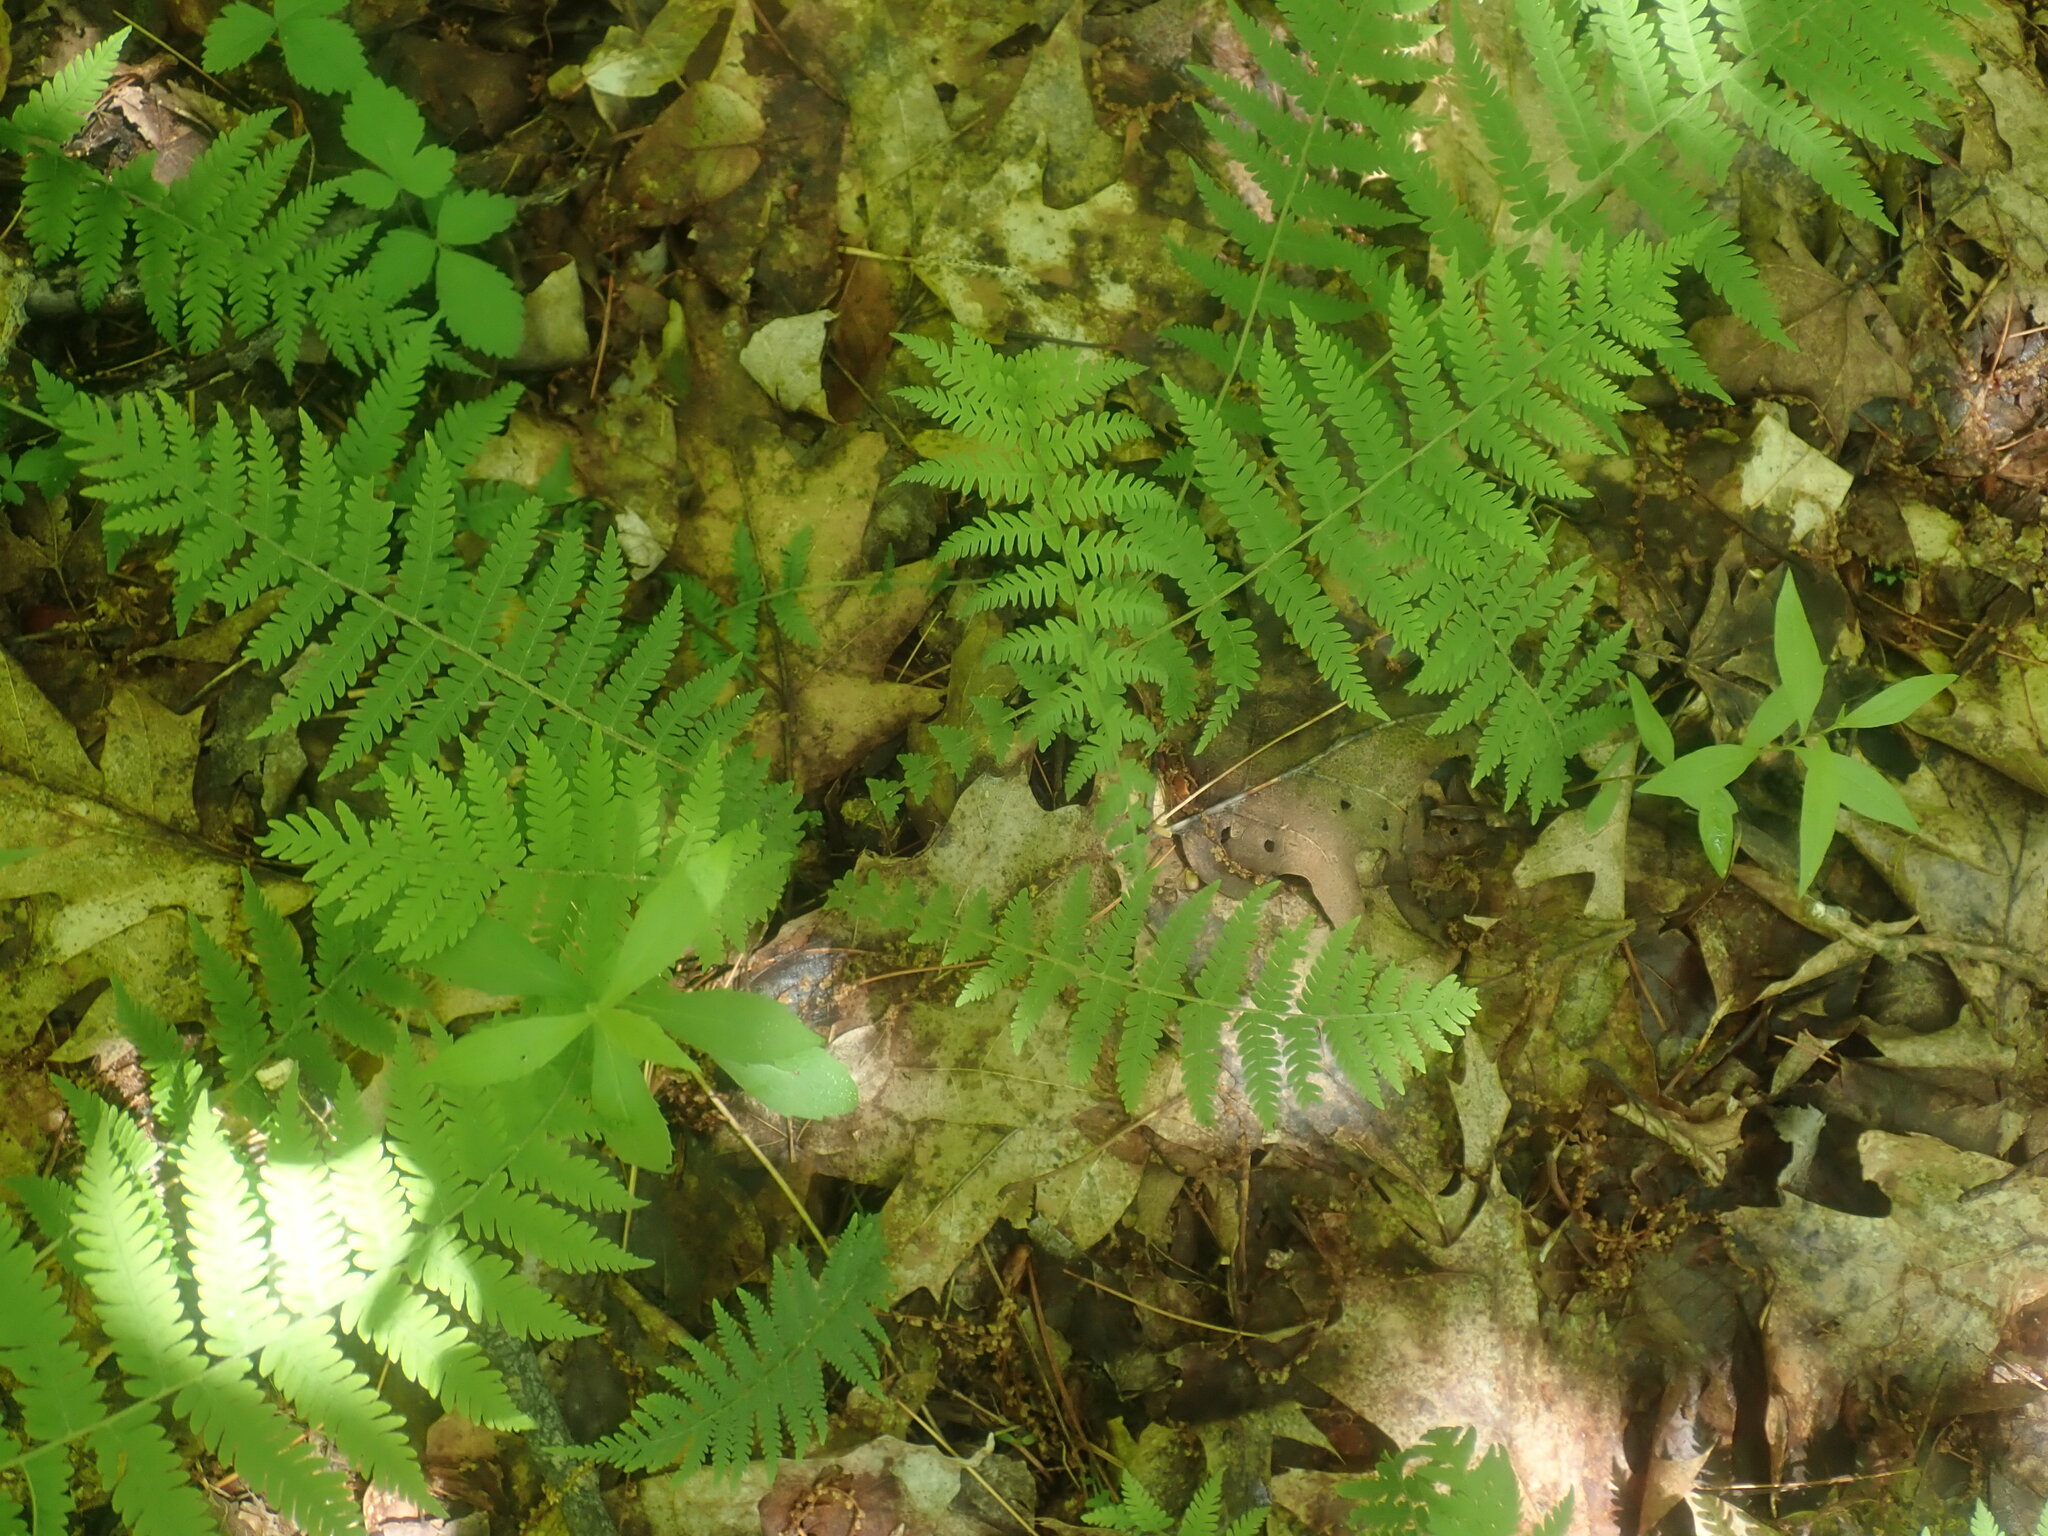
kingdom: Plantae
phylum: Tracheophyta
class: Polypodiopsida
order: Polypodiales
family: Thelypteridaceae
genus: Amauropelta
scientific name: Amauropelta noveboracensis
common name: New york fern
